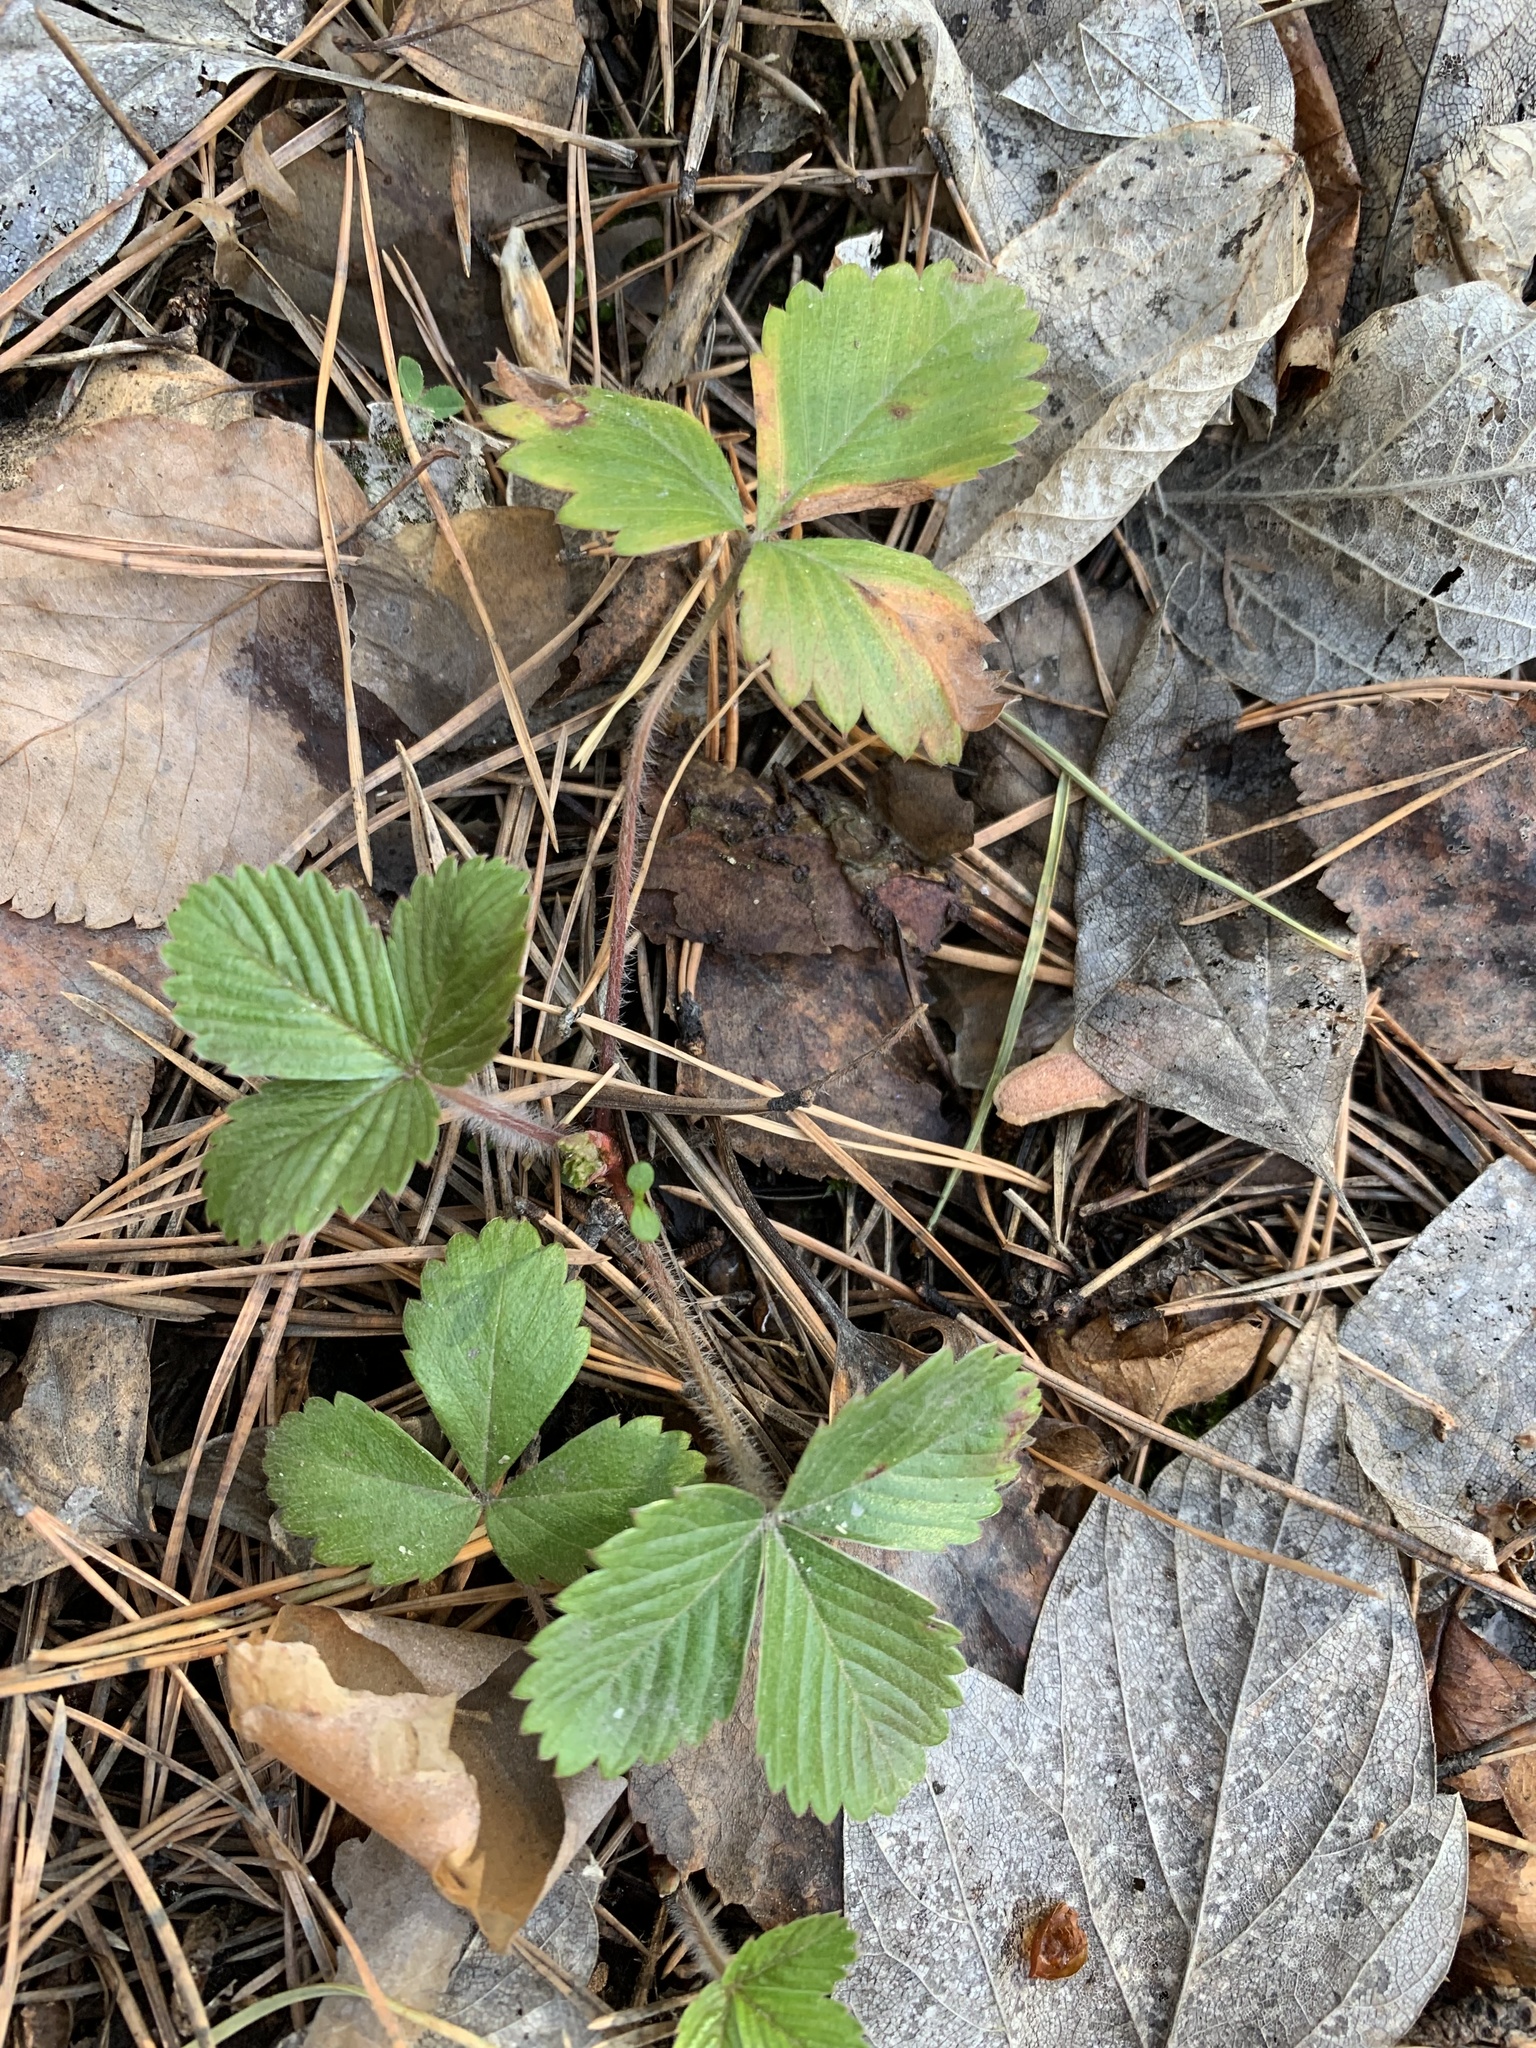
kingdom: Plantae
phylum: Tracheophyta
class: Magnoliopsida
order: Rosales
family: Rosaceae
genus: Fragaria
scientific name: Fragaria vesca
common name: Wild strawberry
